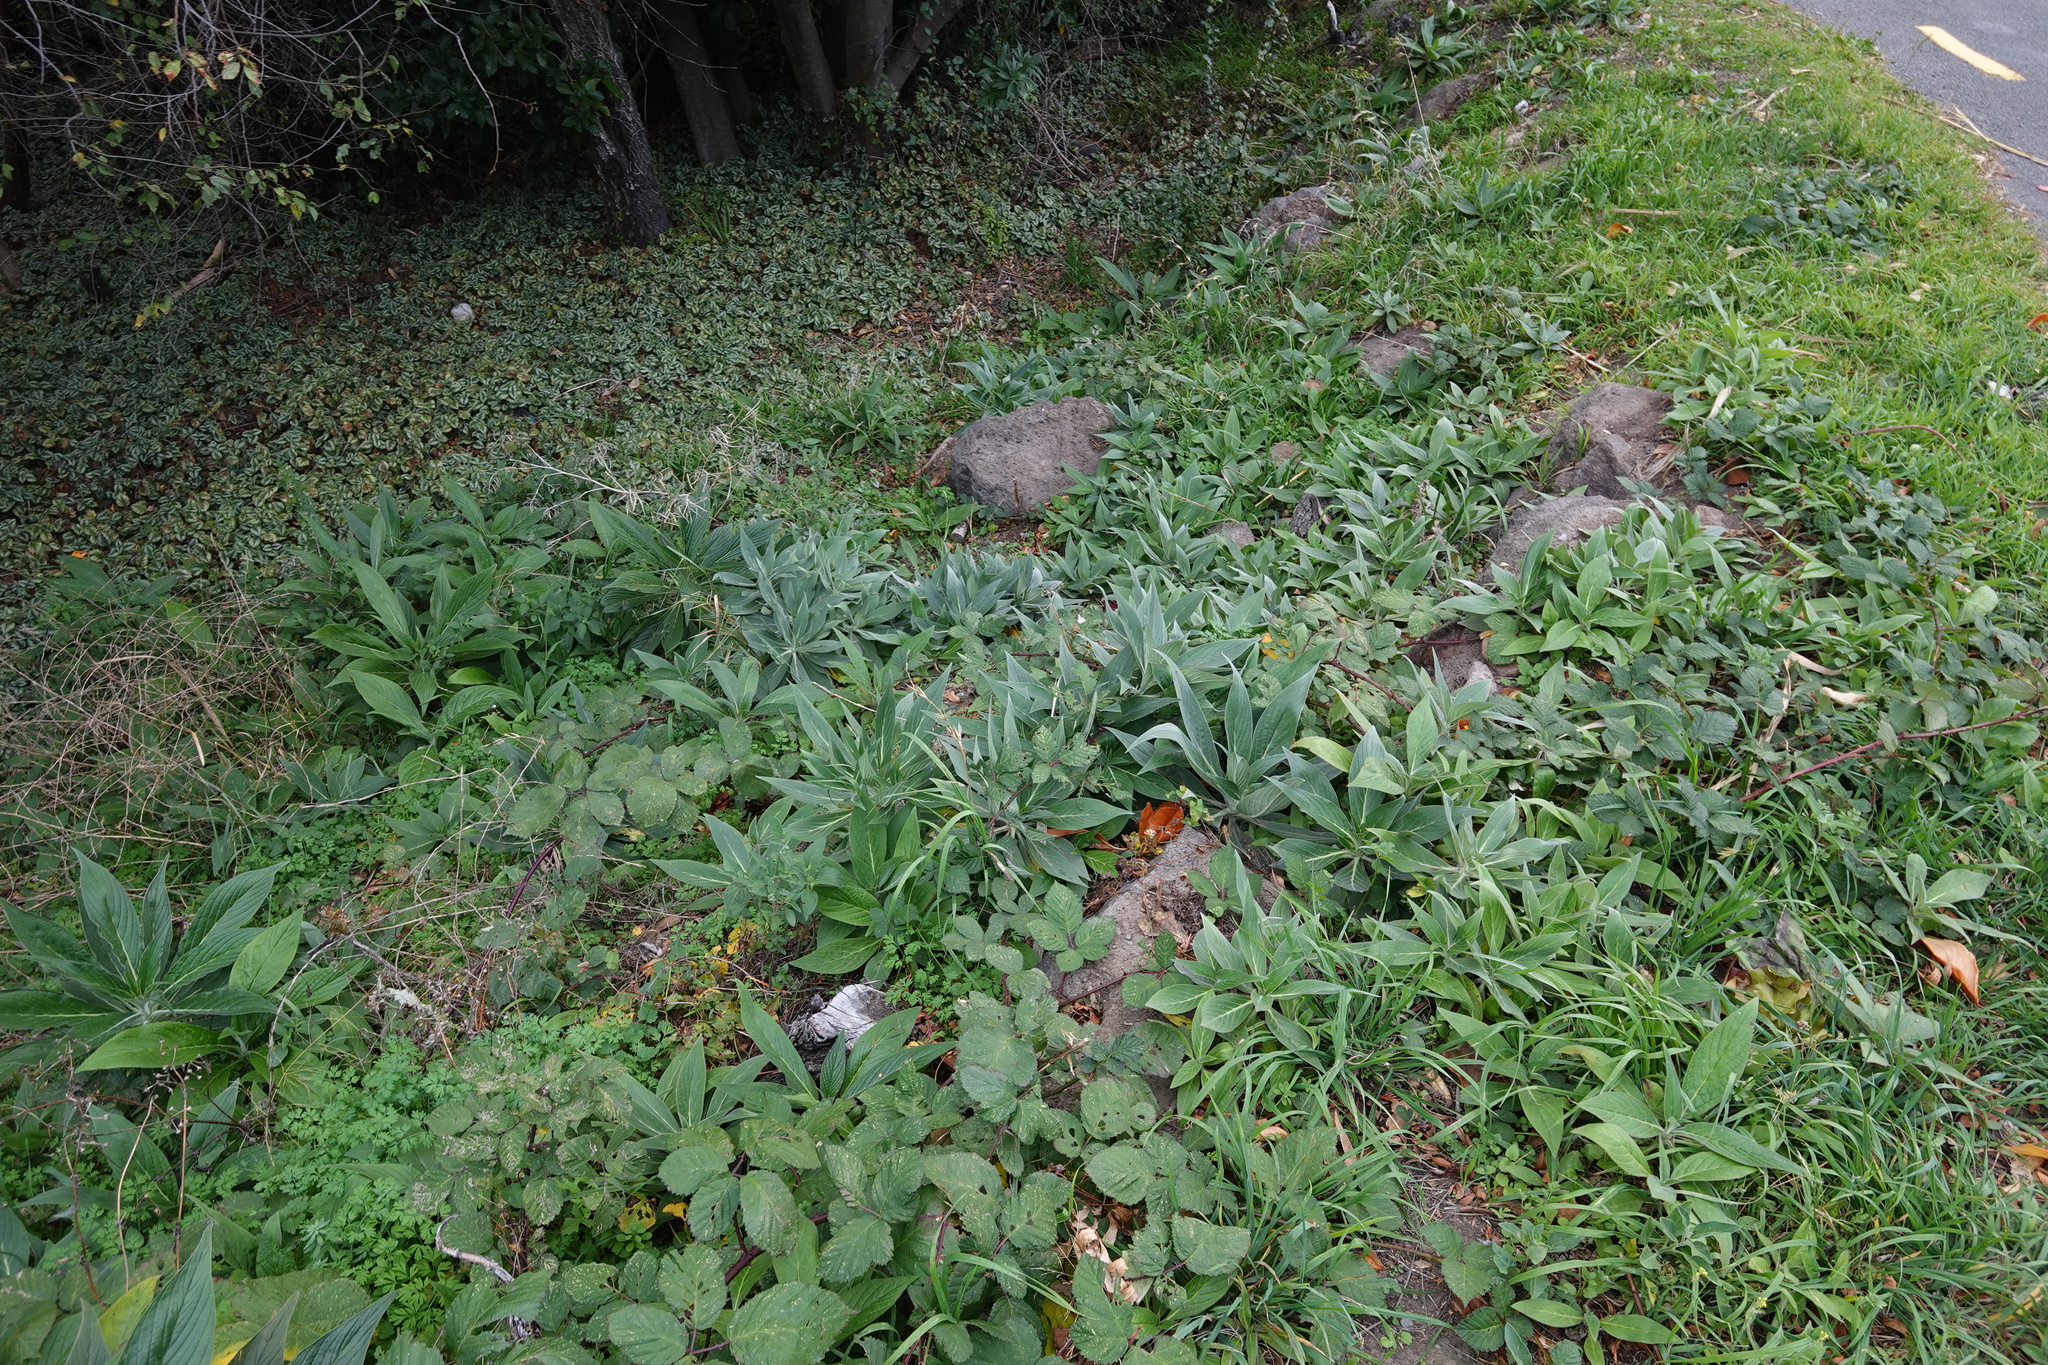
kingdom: Plantae
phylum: Tracheophyta
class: Magnoliopsida
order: Boraginales
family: Boraginaceae
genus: Echium
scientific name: Echium candicans
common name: Pride of madeira
